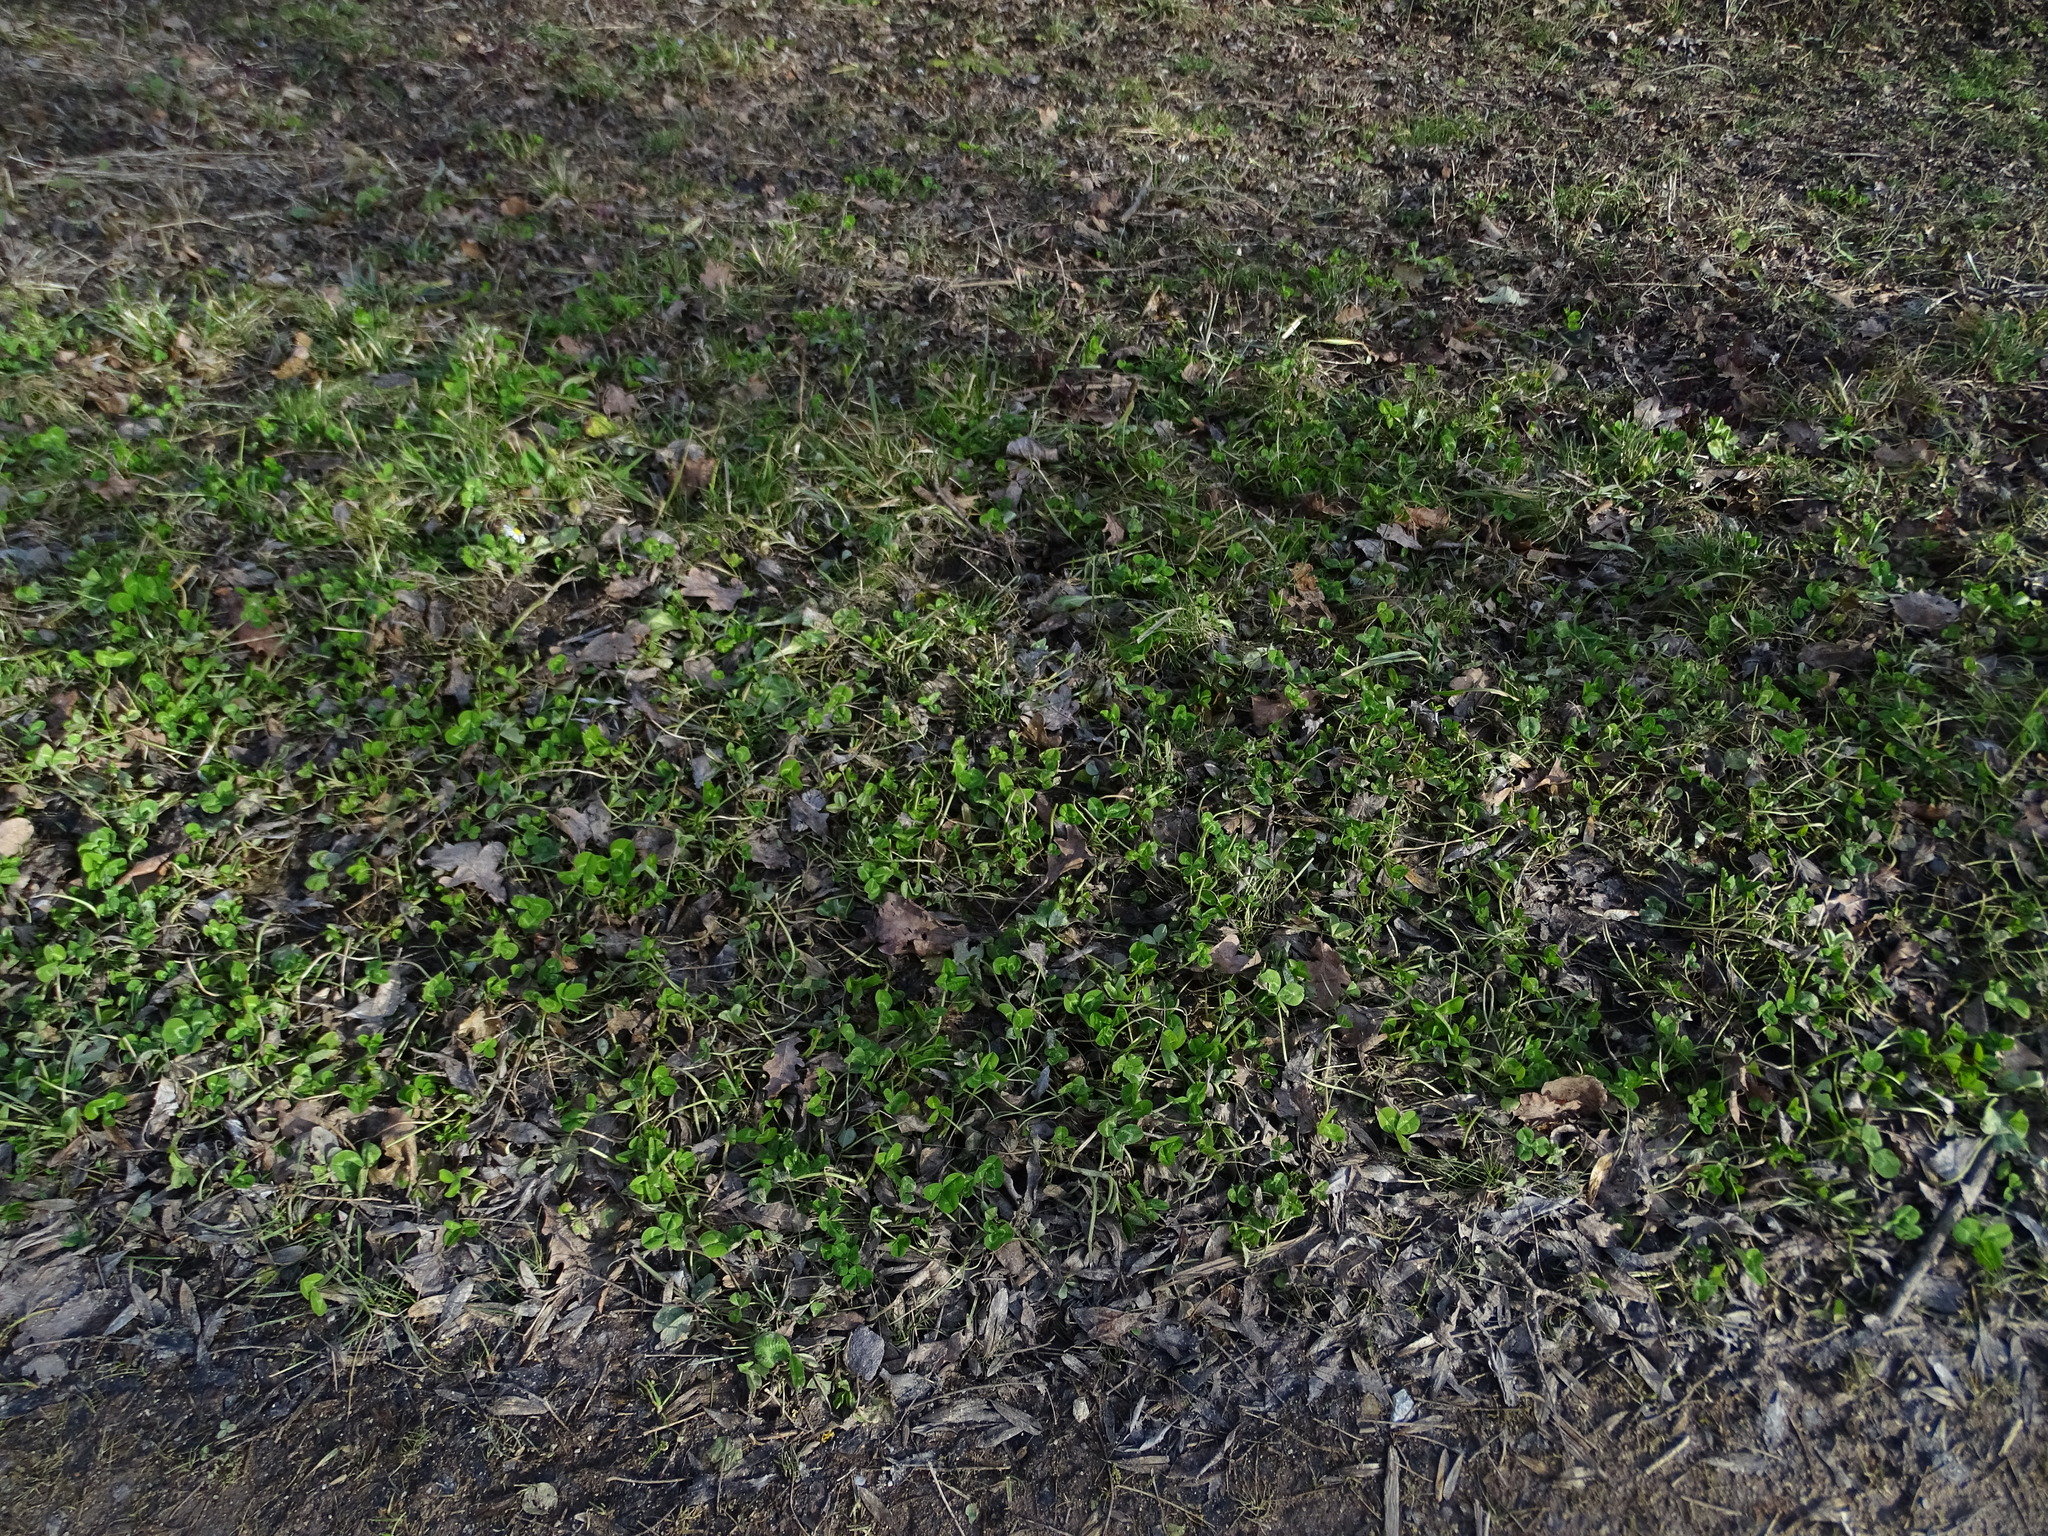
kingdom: Plantae
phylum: Tracheophyta
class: Magnoliopsida
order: Fabales
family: Fabaceae
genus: Trifolium
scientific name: Trifolium repens
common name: White clover
